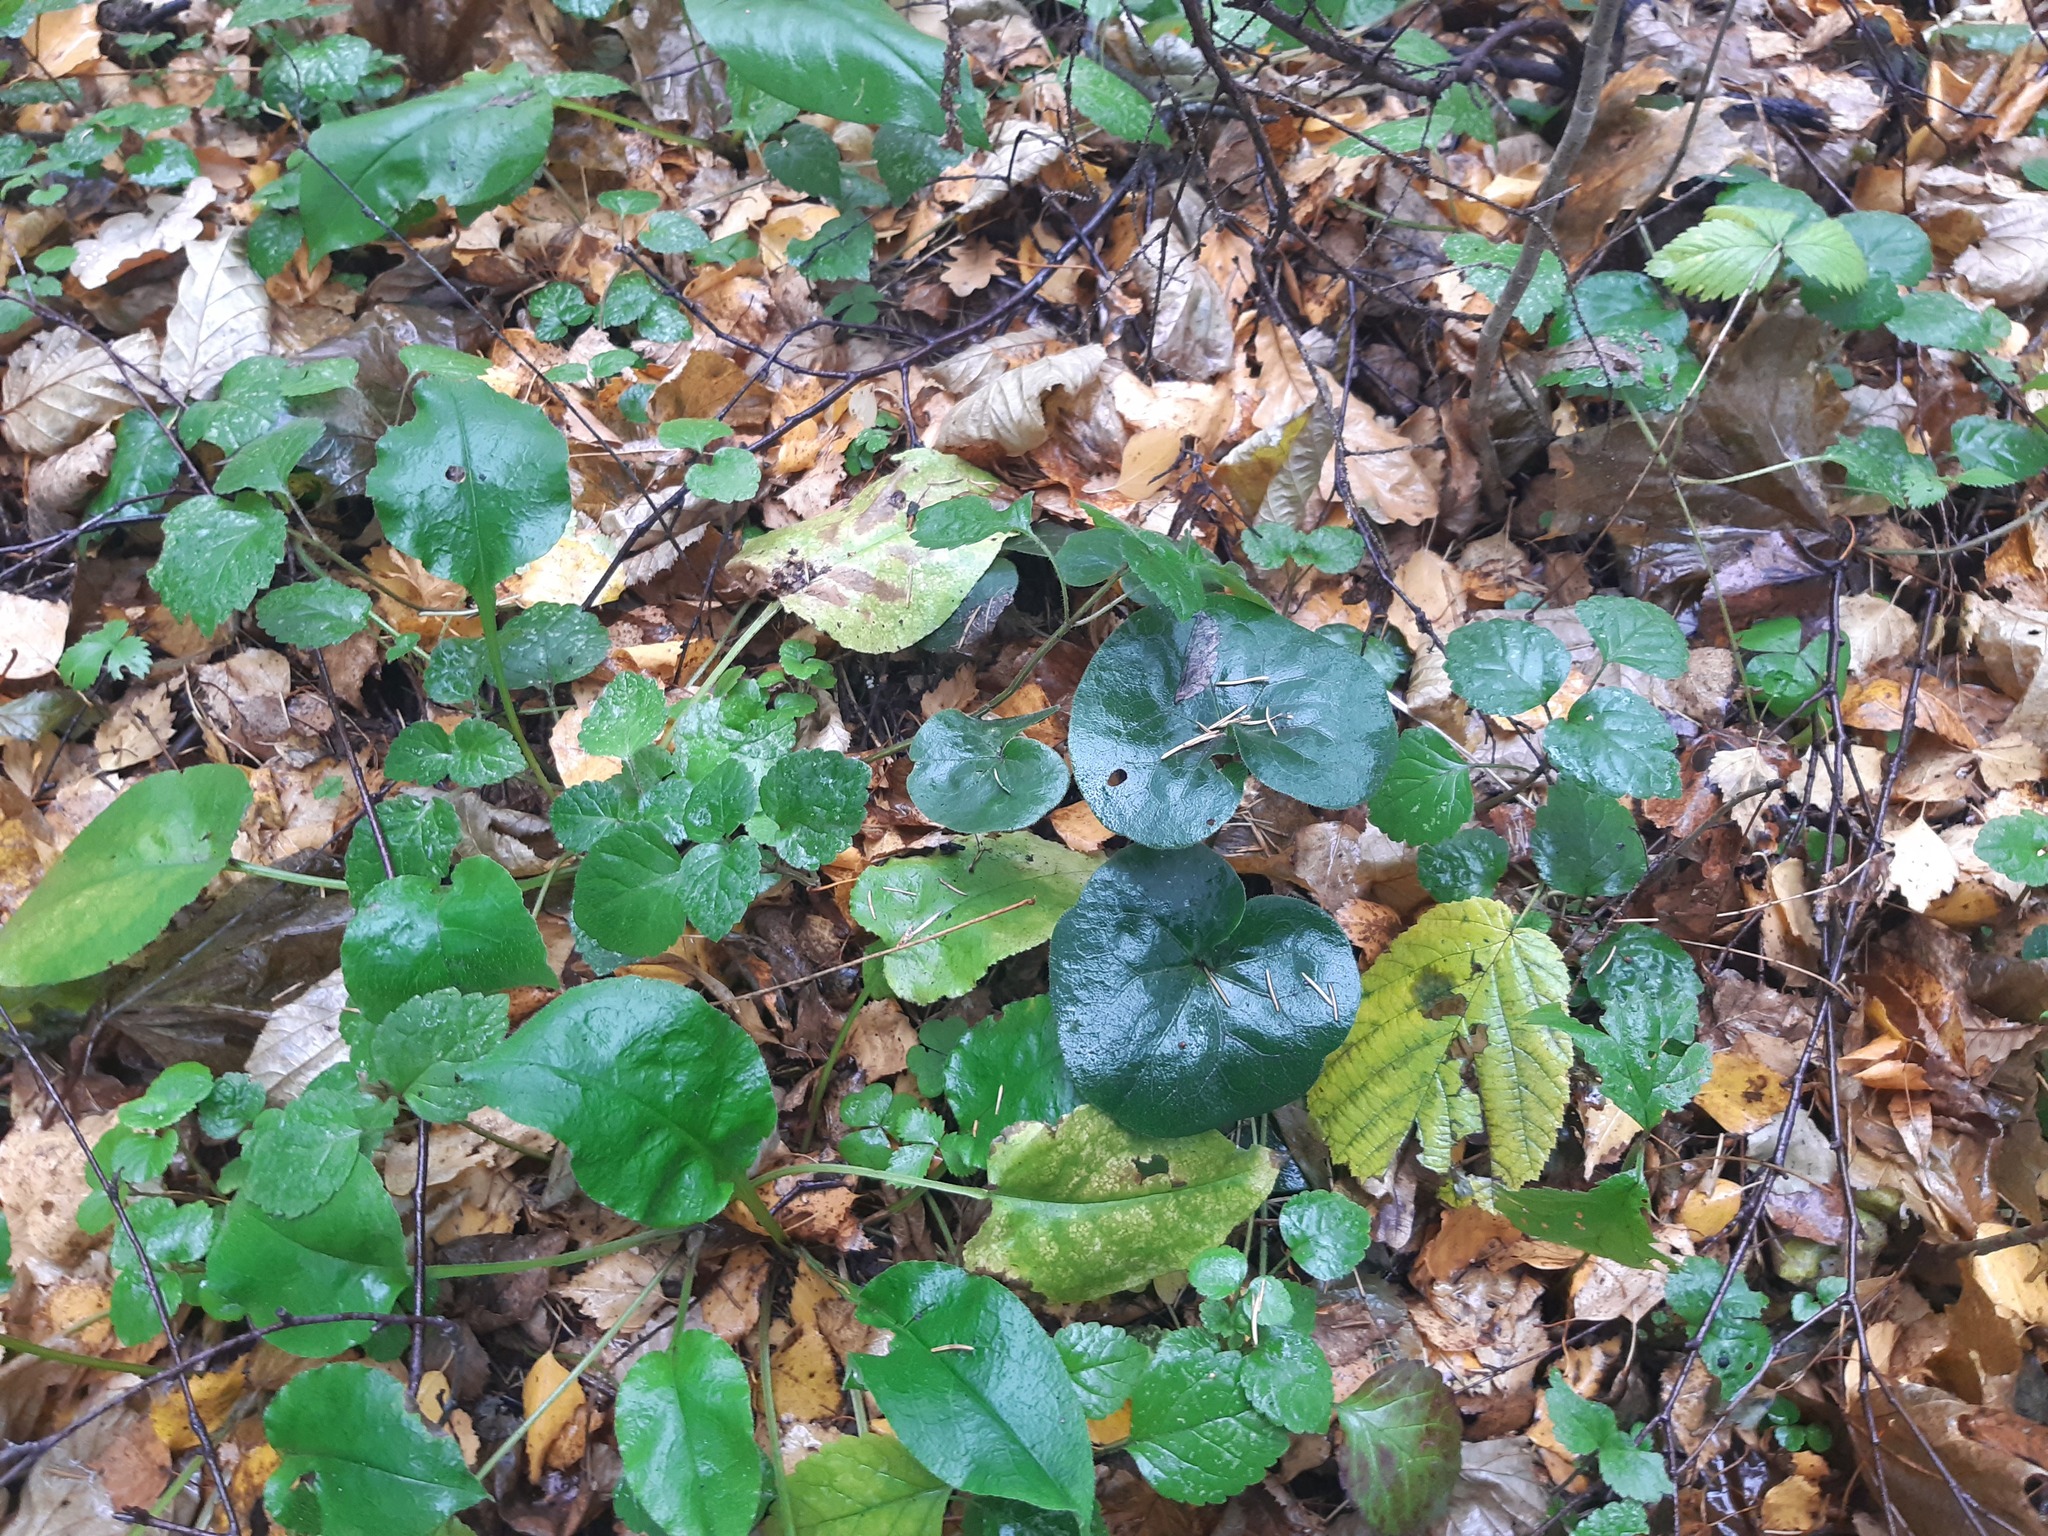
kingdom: Plantae
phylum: Tracheophyta
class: Magnoliopsida
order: Piperales
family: Aristolochiaceae
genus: Asarum
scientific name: Asarum europaeum
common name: Asarabacca
